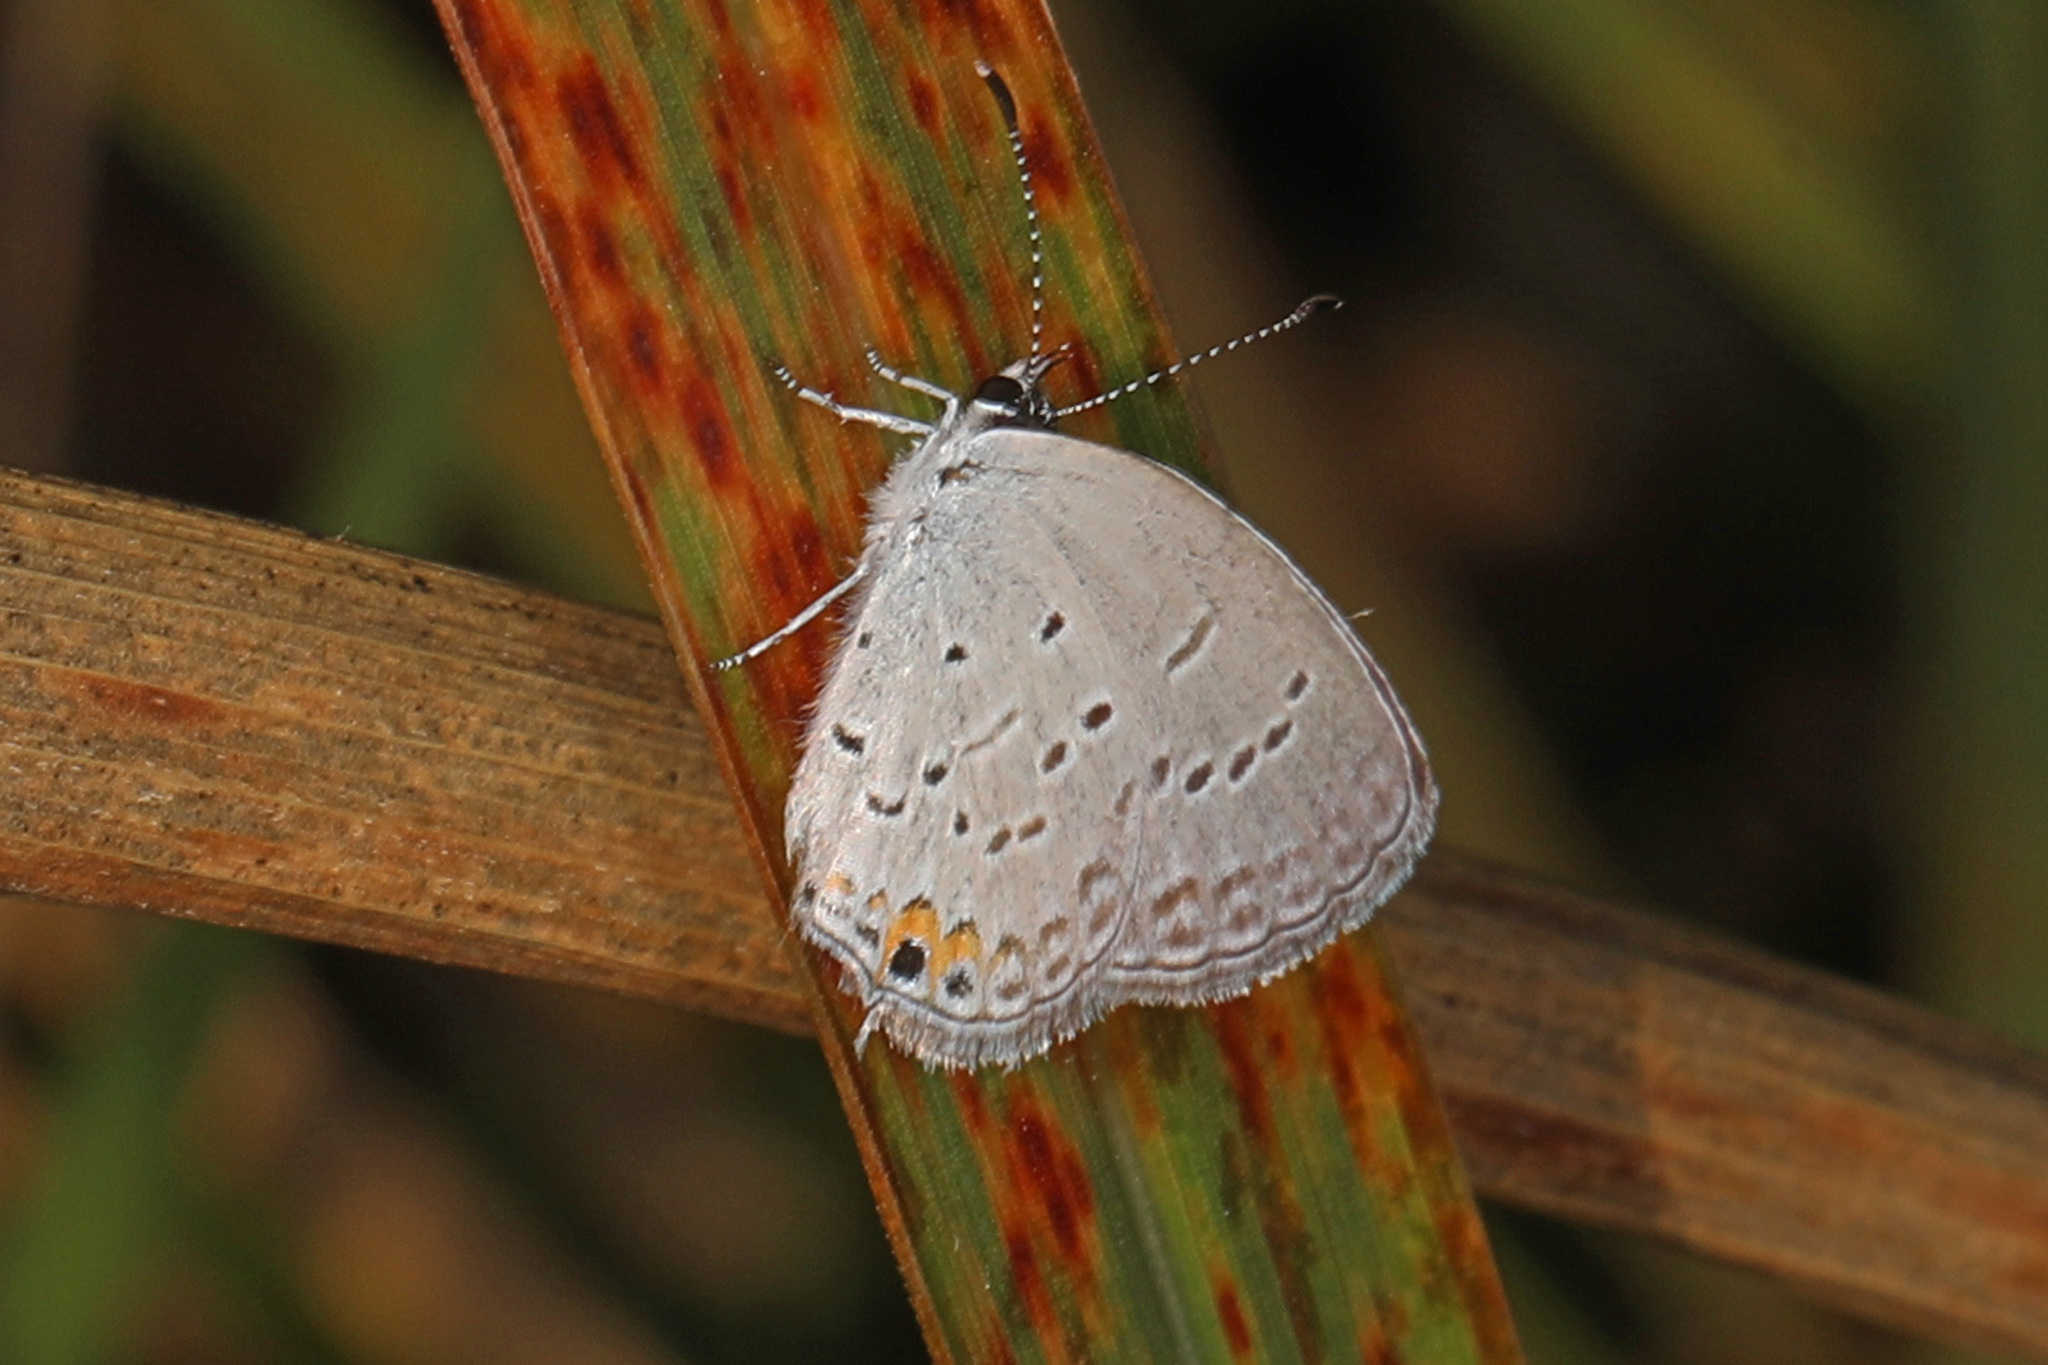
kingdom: Animalia
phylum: Arthropoda
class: Insecta
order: Lepidoptera
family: Lycaenidae
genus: Elkalyce
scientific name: Elkalyce comyntas
